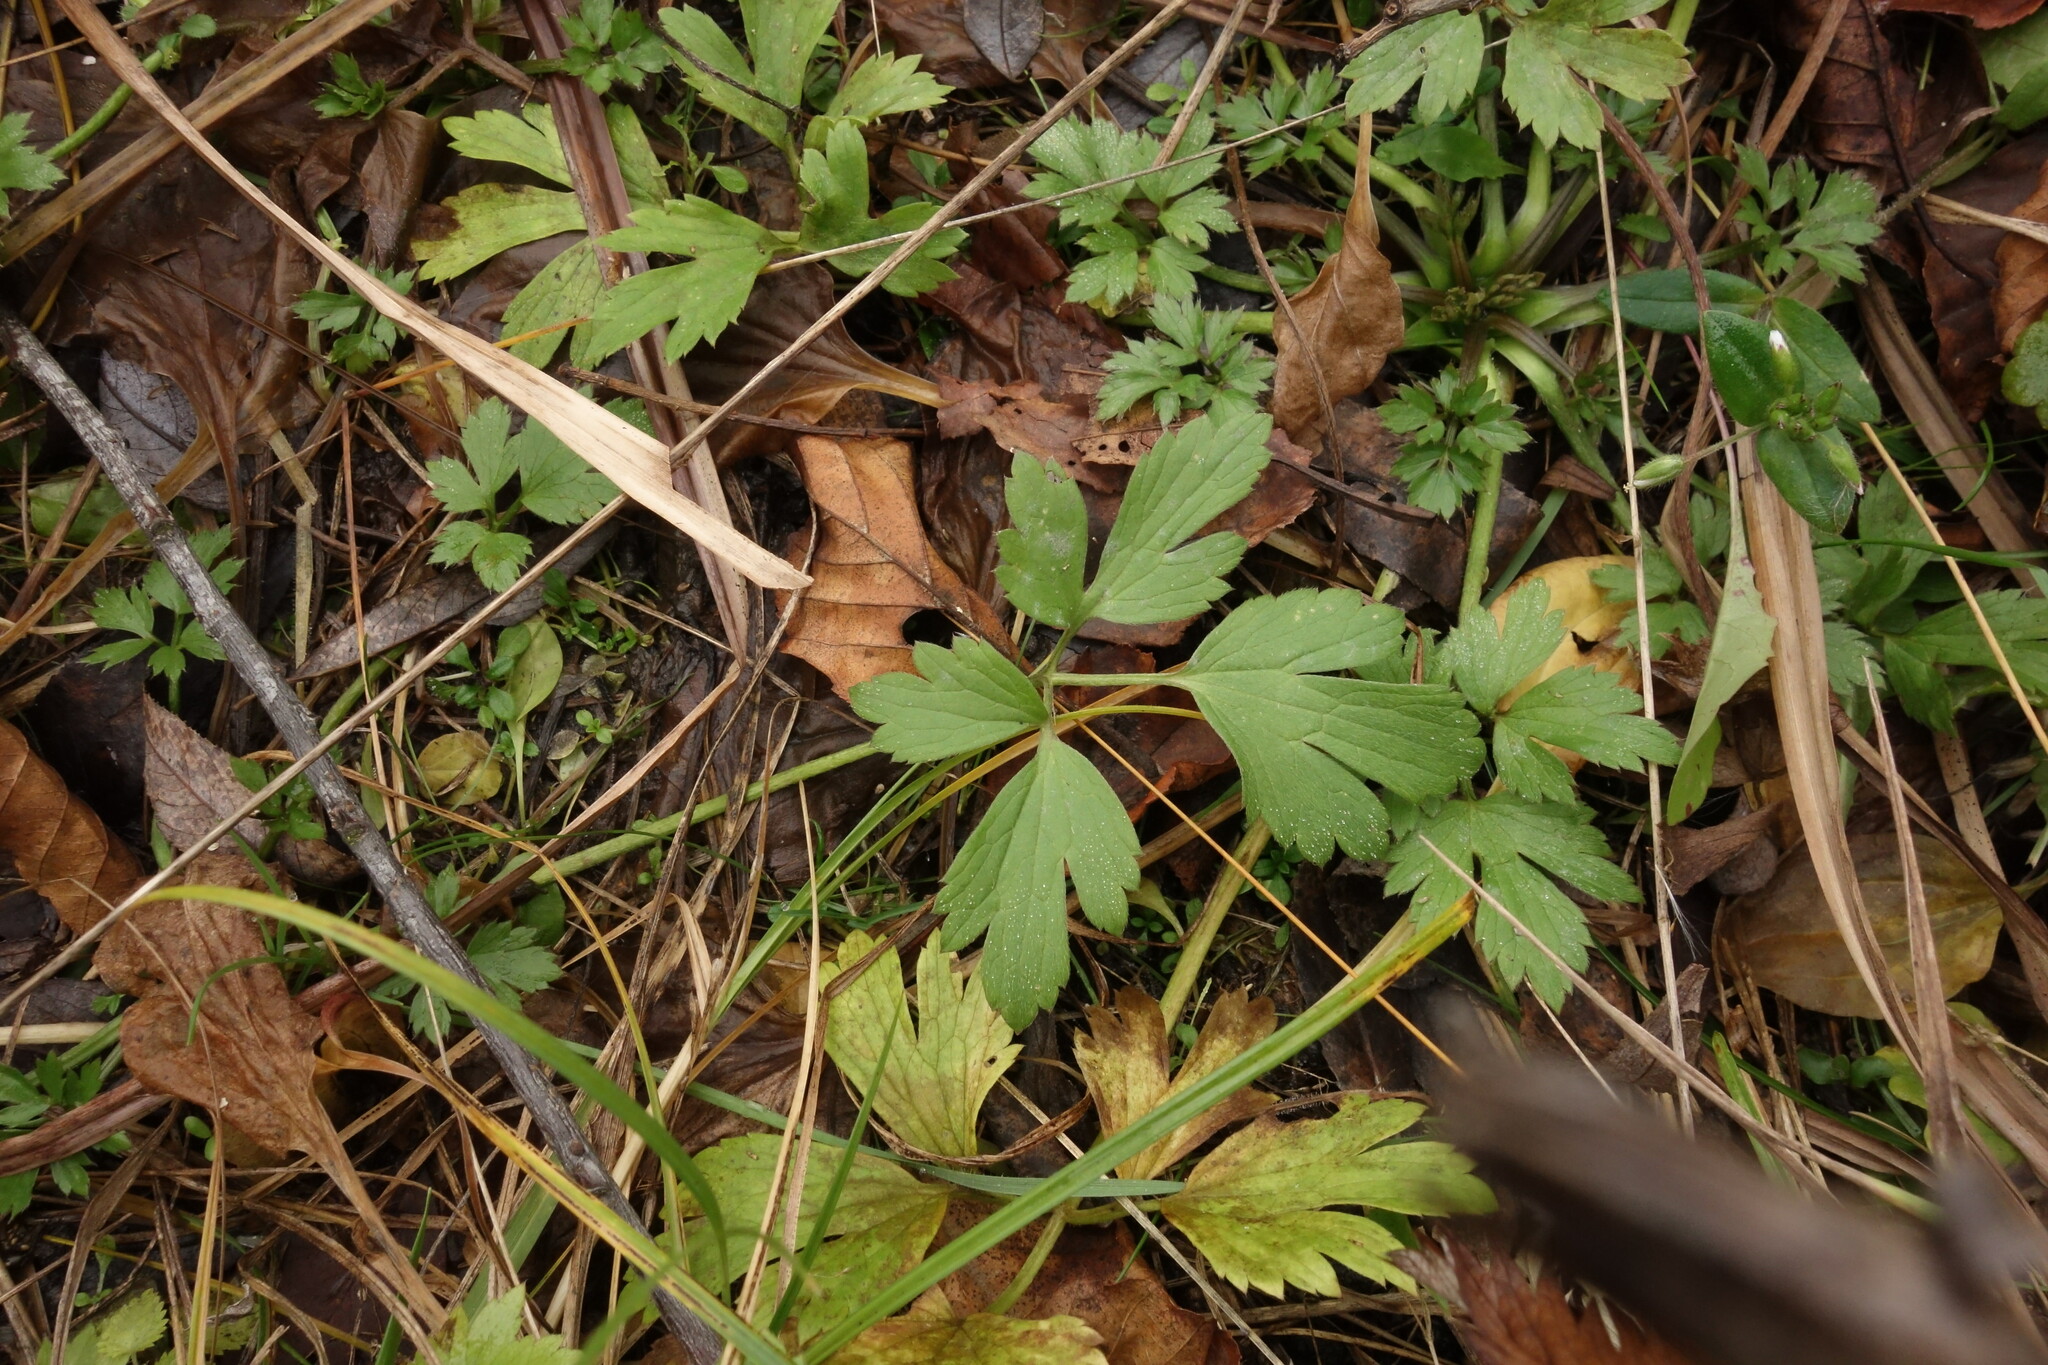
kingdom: Plantae
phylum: Tracheophyta
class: Magnoliopsida
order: Ranunculales
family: Ranunculaceae
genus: Ranunculus
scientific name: Ranunculus repens
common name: Creeping buttercup
